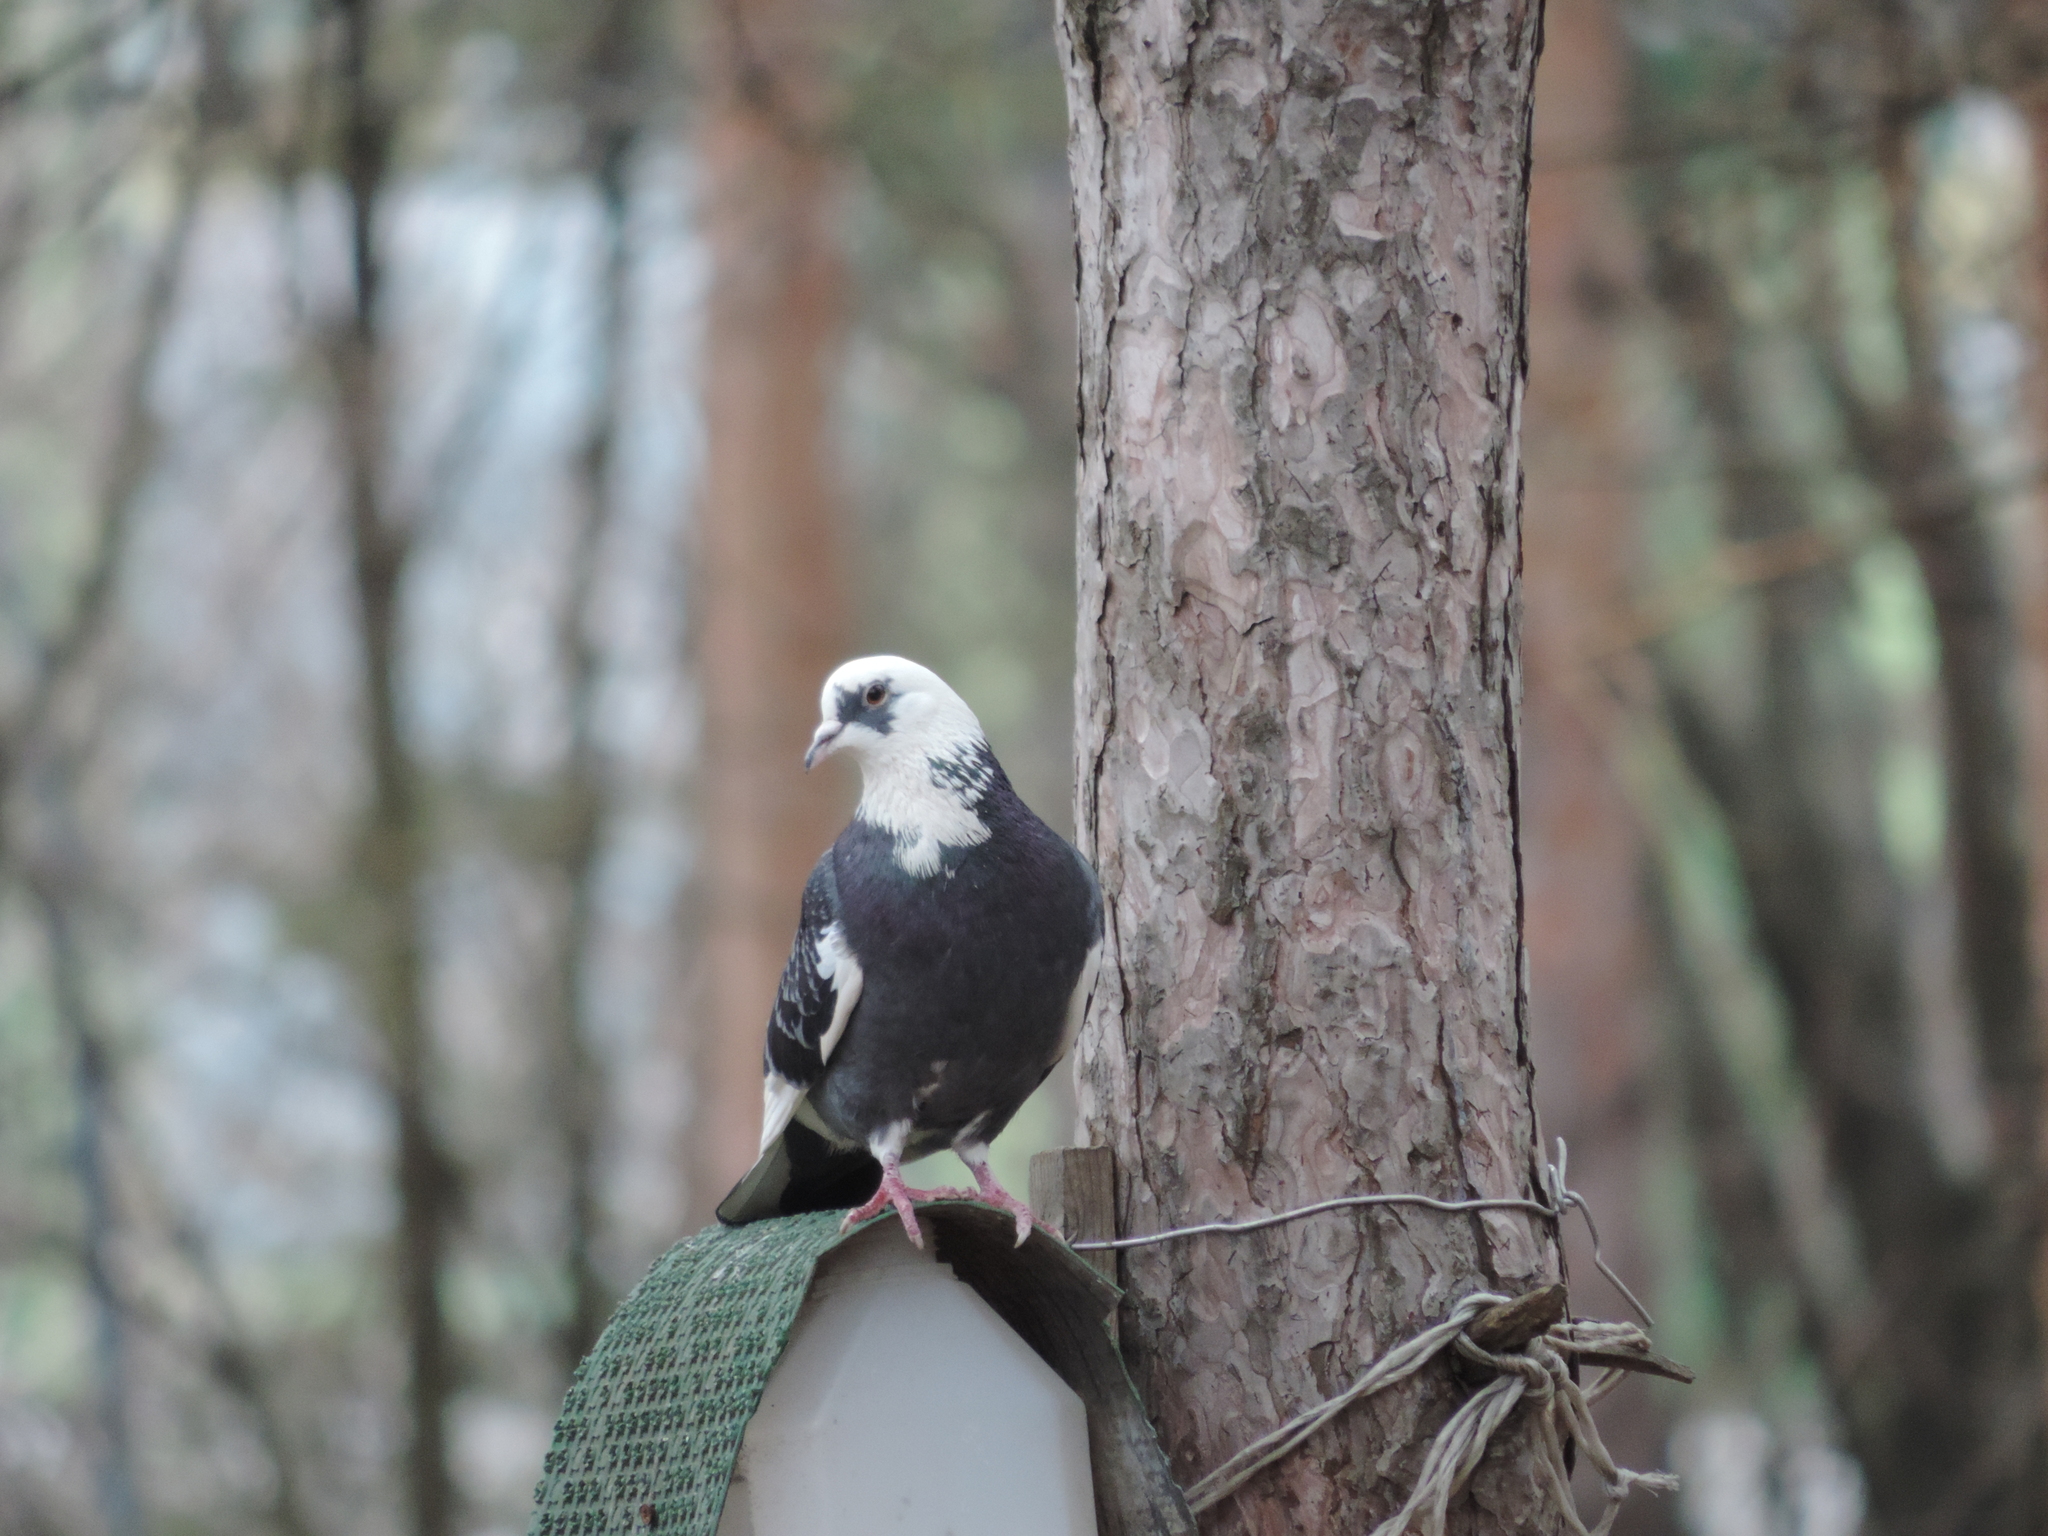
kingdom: Animalia
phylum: Chordata
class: Aves
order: Columbiformes
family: Columbidae
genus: Columba
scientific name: Columba livia
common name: Rock pigeon
